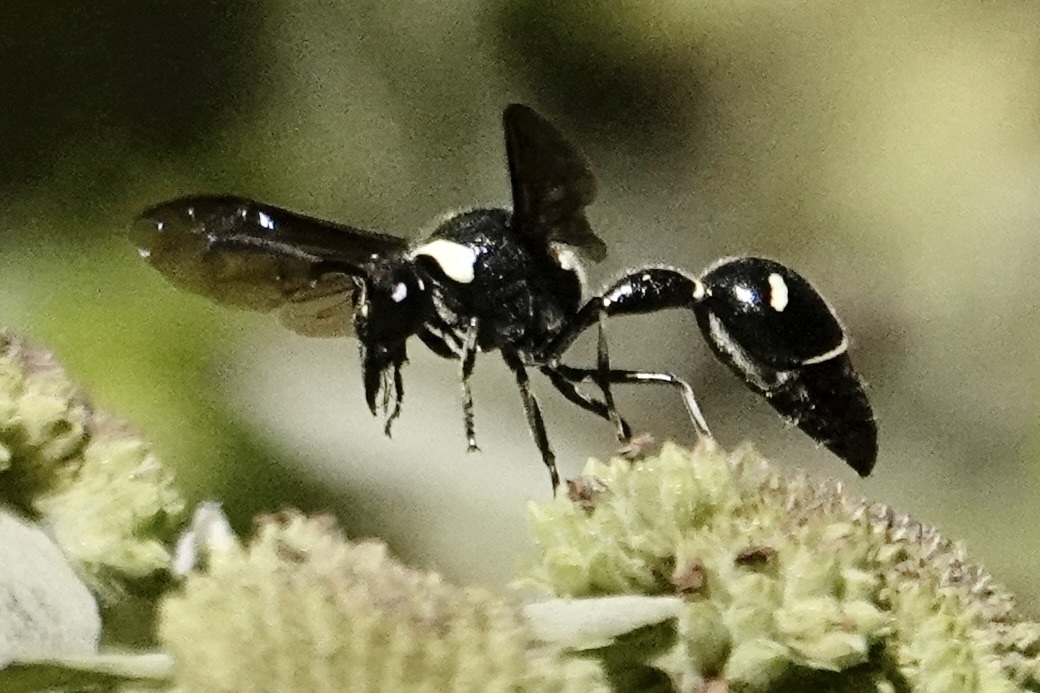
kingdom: Animalia
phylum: Arthropoda
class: Insecta
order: Hymenoptera
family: Vespidae
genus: Eumenes
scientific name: Eumenes fraternus
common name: Fraternal potter wasp
